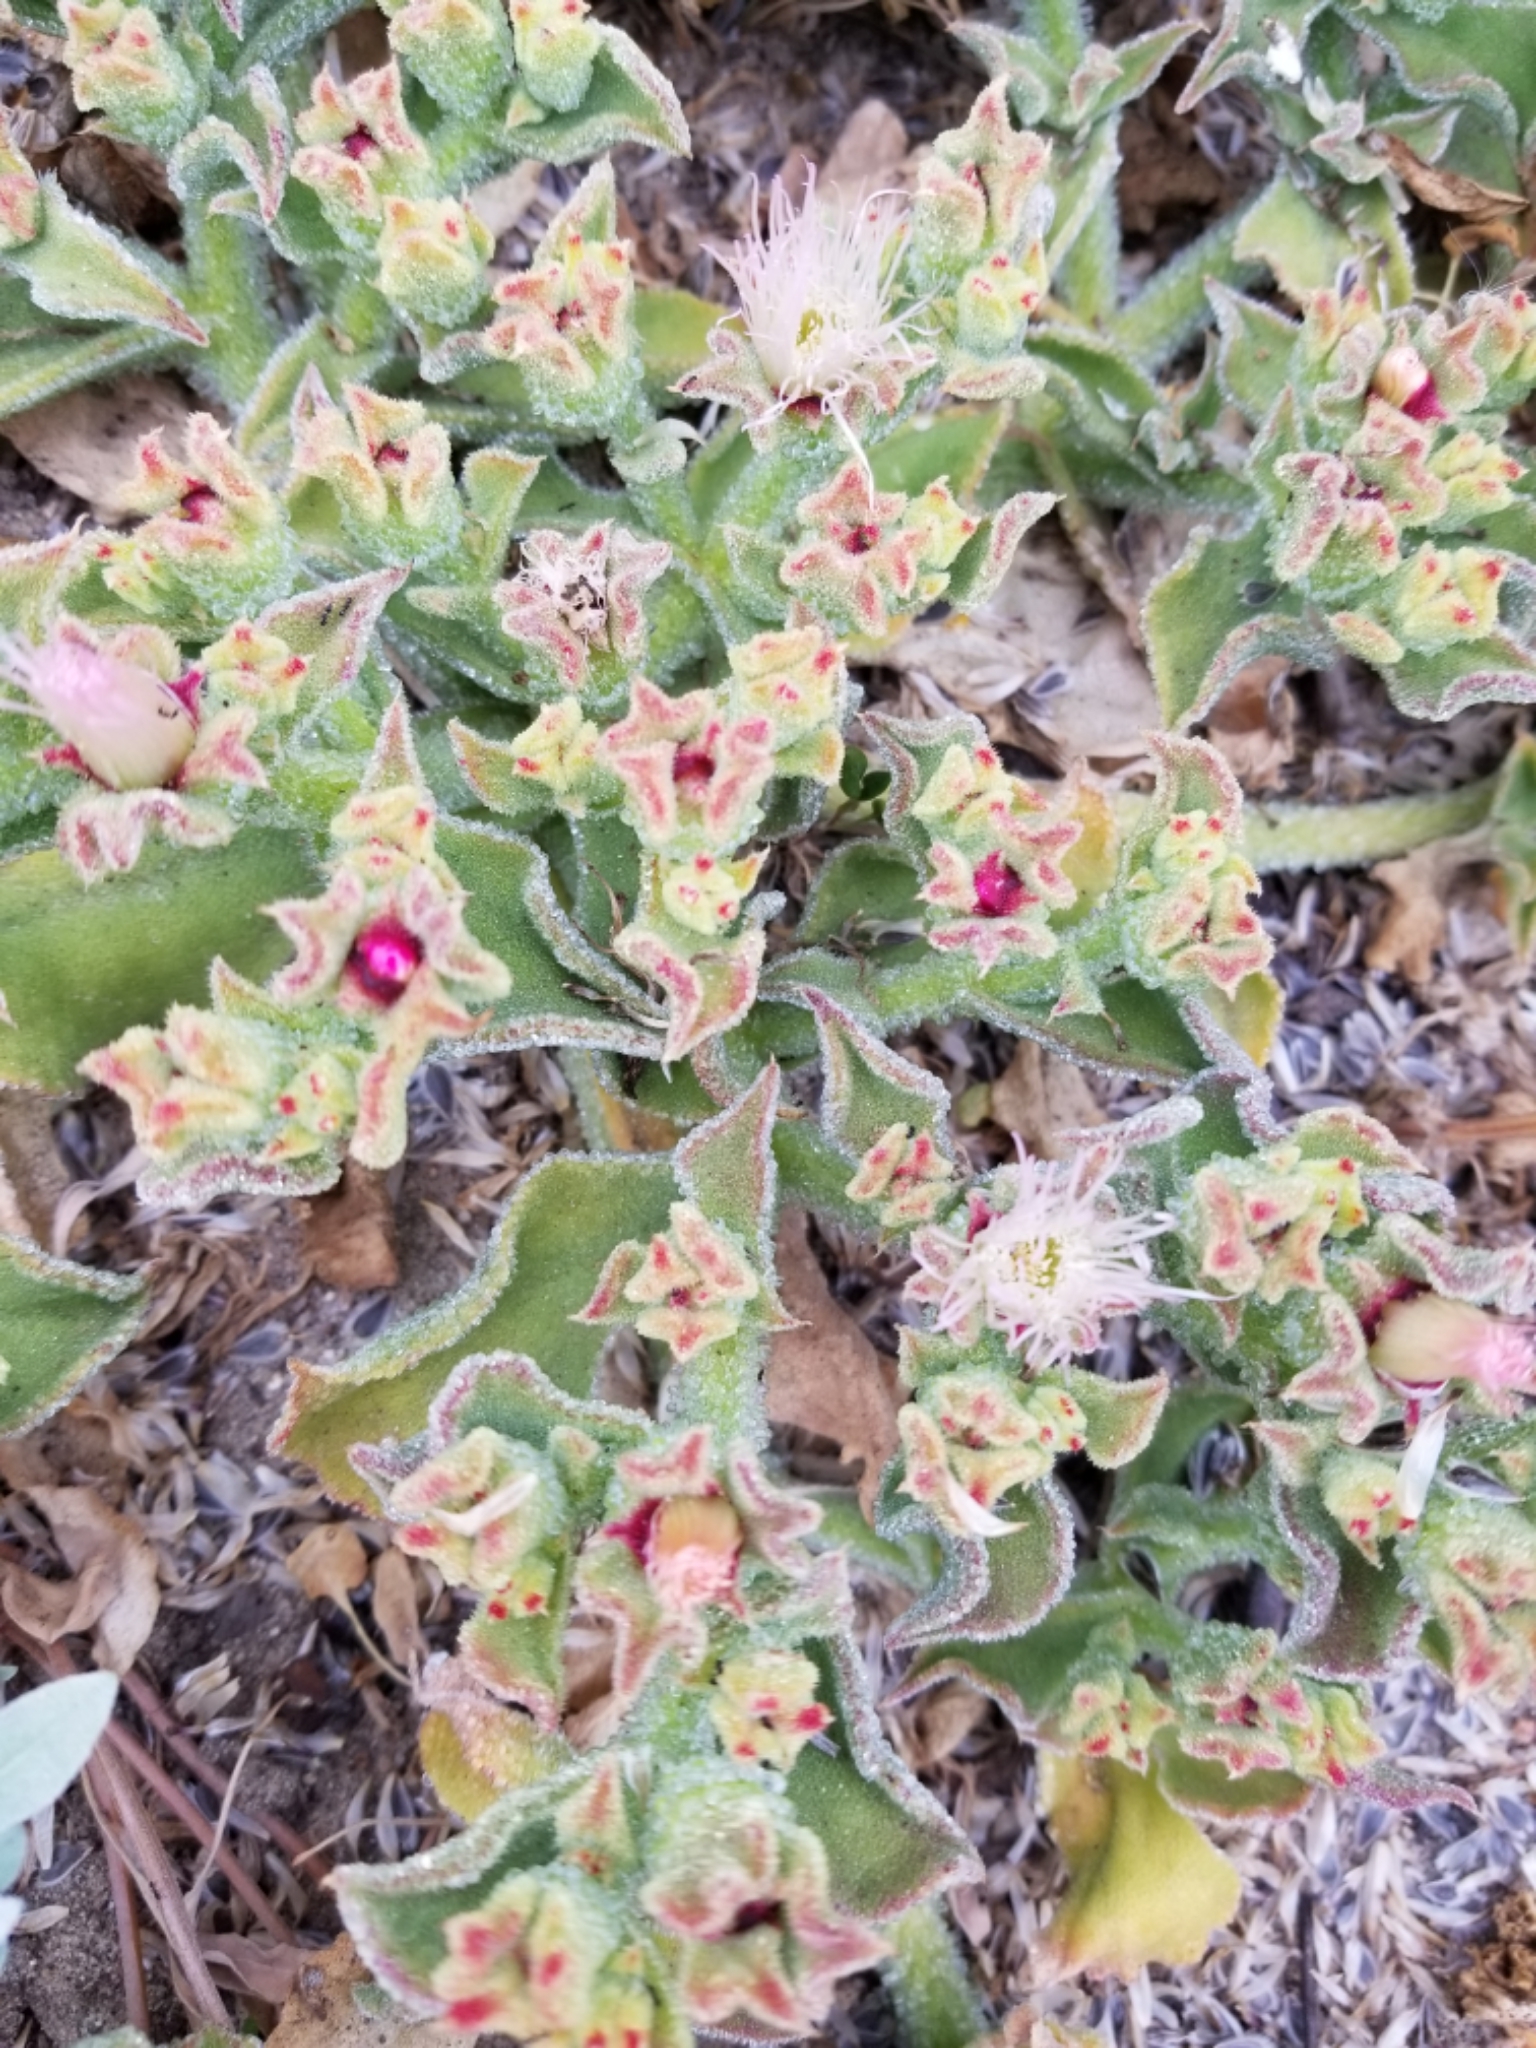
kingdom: Plantae
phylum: Tracheophyta
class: Magnoliopsida
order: Caryophyllales
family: Aizoaceae
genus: Mesembryanthemum
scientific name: Mesembryanthemum crystallinum
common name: Common iceplant
